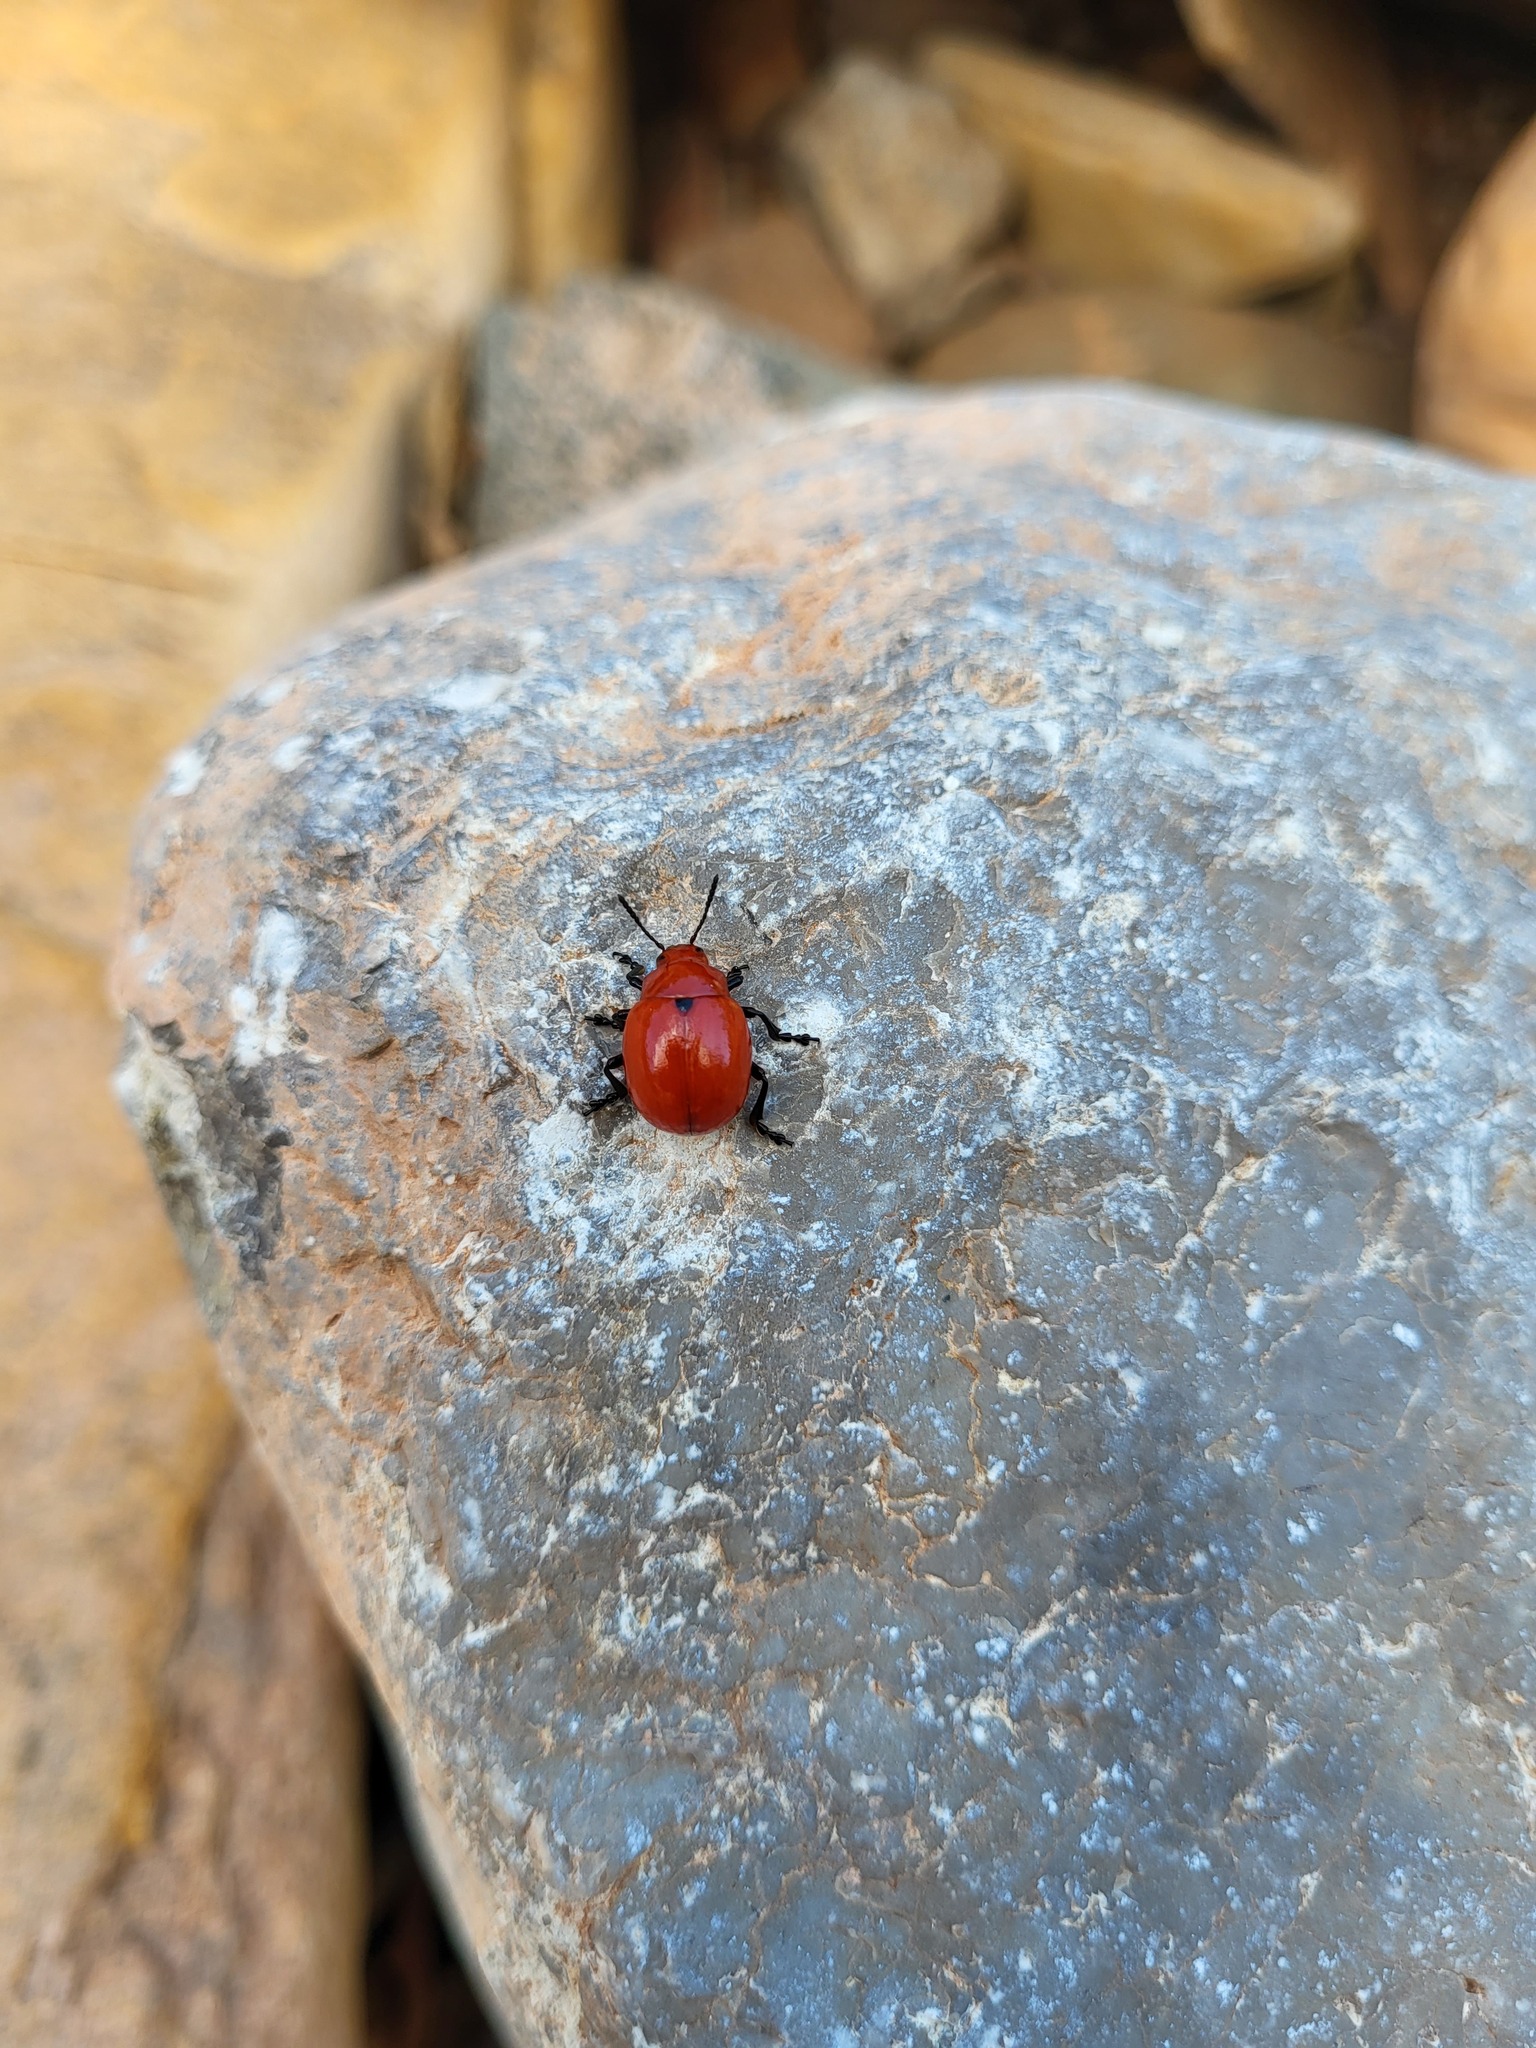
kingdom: Animalia
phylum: Arthropoda
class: Insecta
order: Coleoptera
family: Chrysomelidae
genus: Leptinotarsa
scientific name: Leptinotarsa rubiginosa
